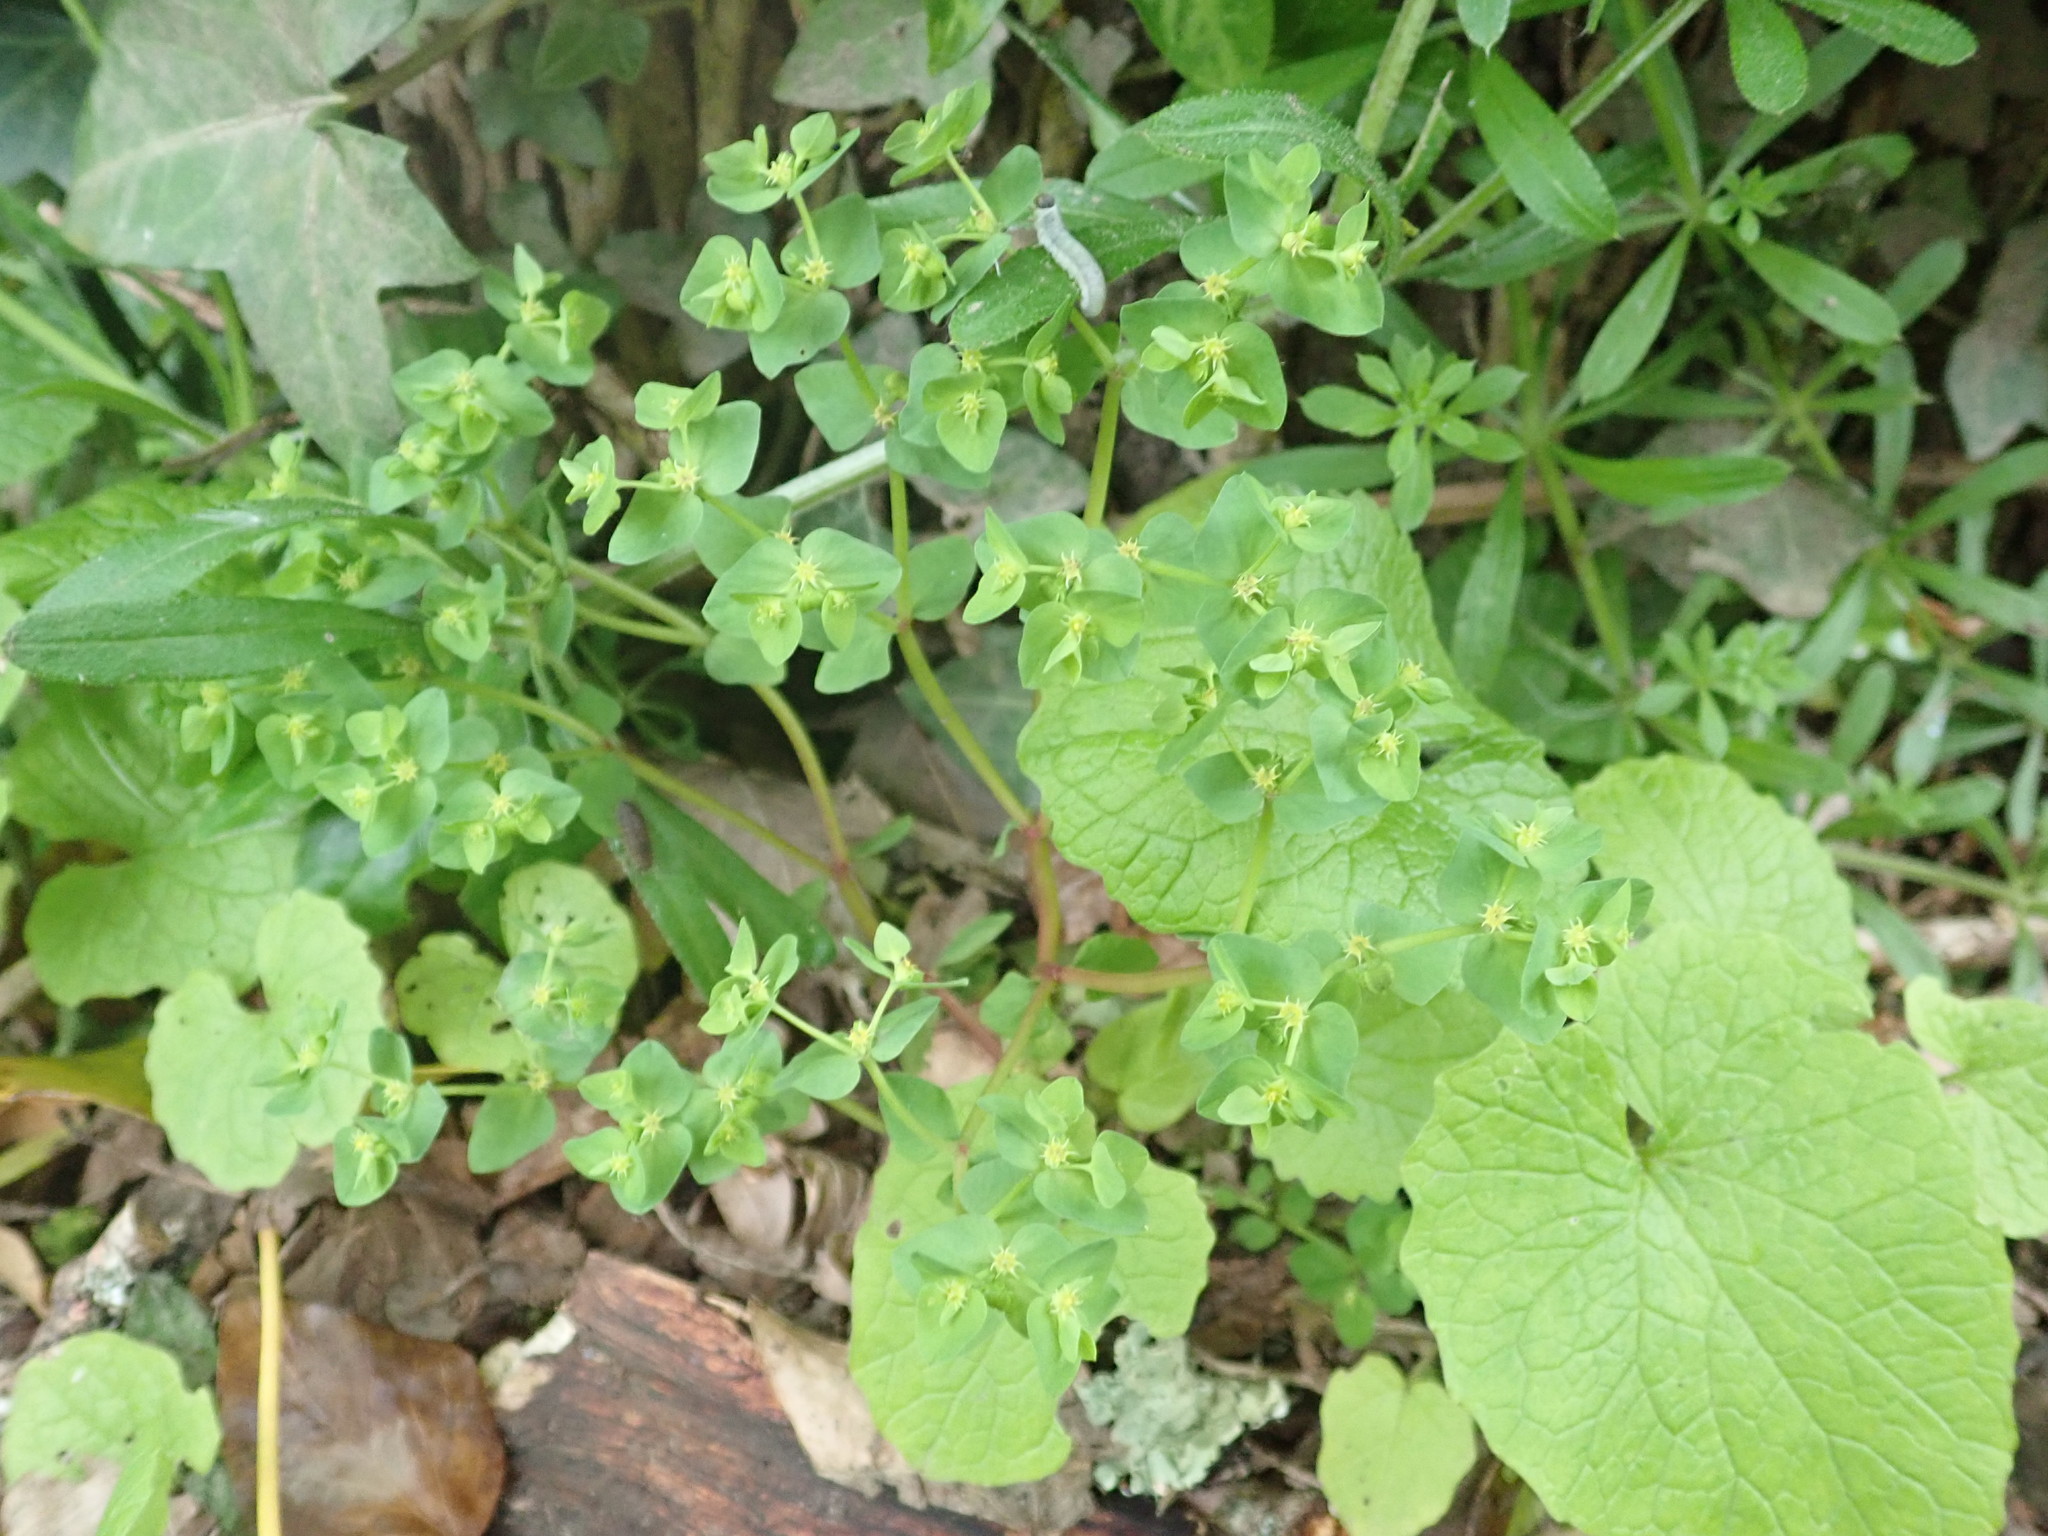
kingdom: Plantae
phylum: Tracheophyta
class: Magnoliopsida
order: Malpighiales
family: Euphorbiaceae
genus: Euphorbia
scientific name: Euphorbia peplus
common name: Petty spurge
